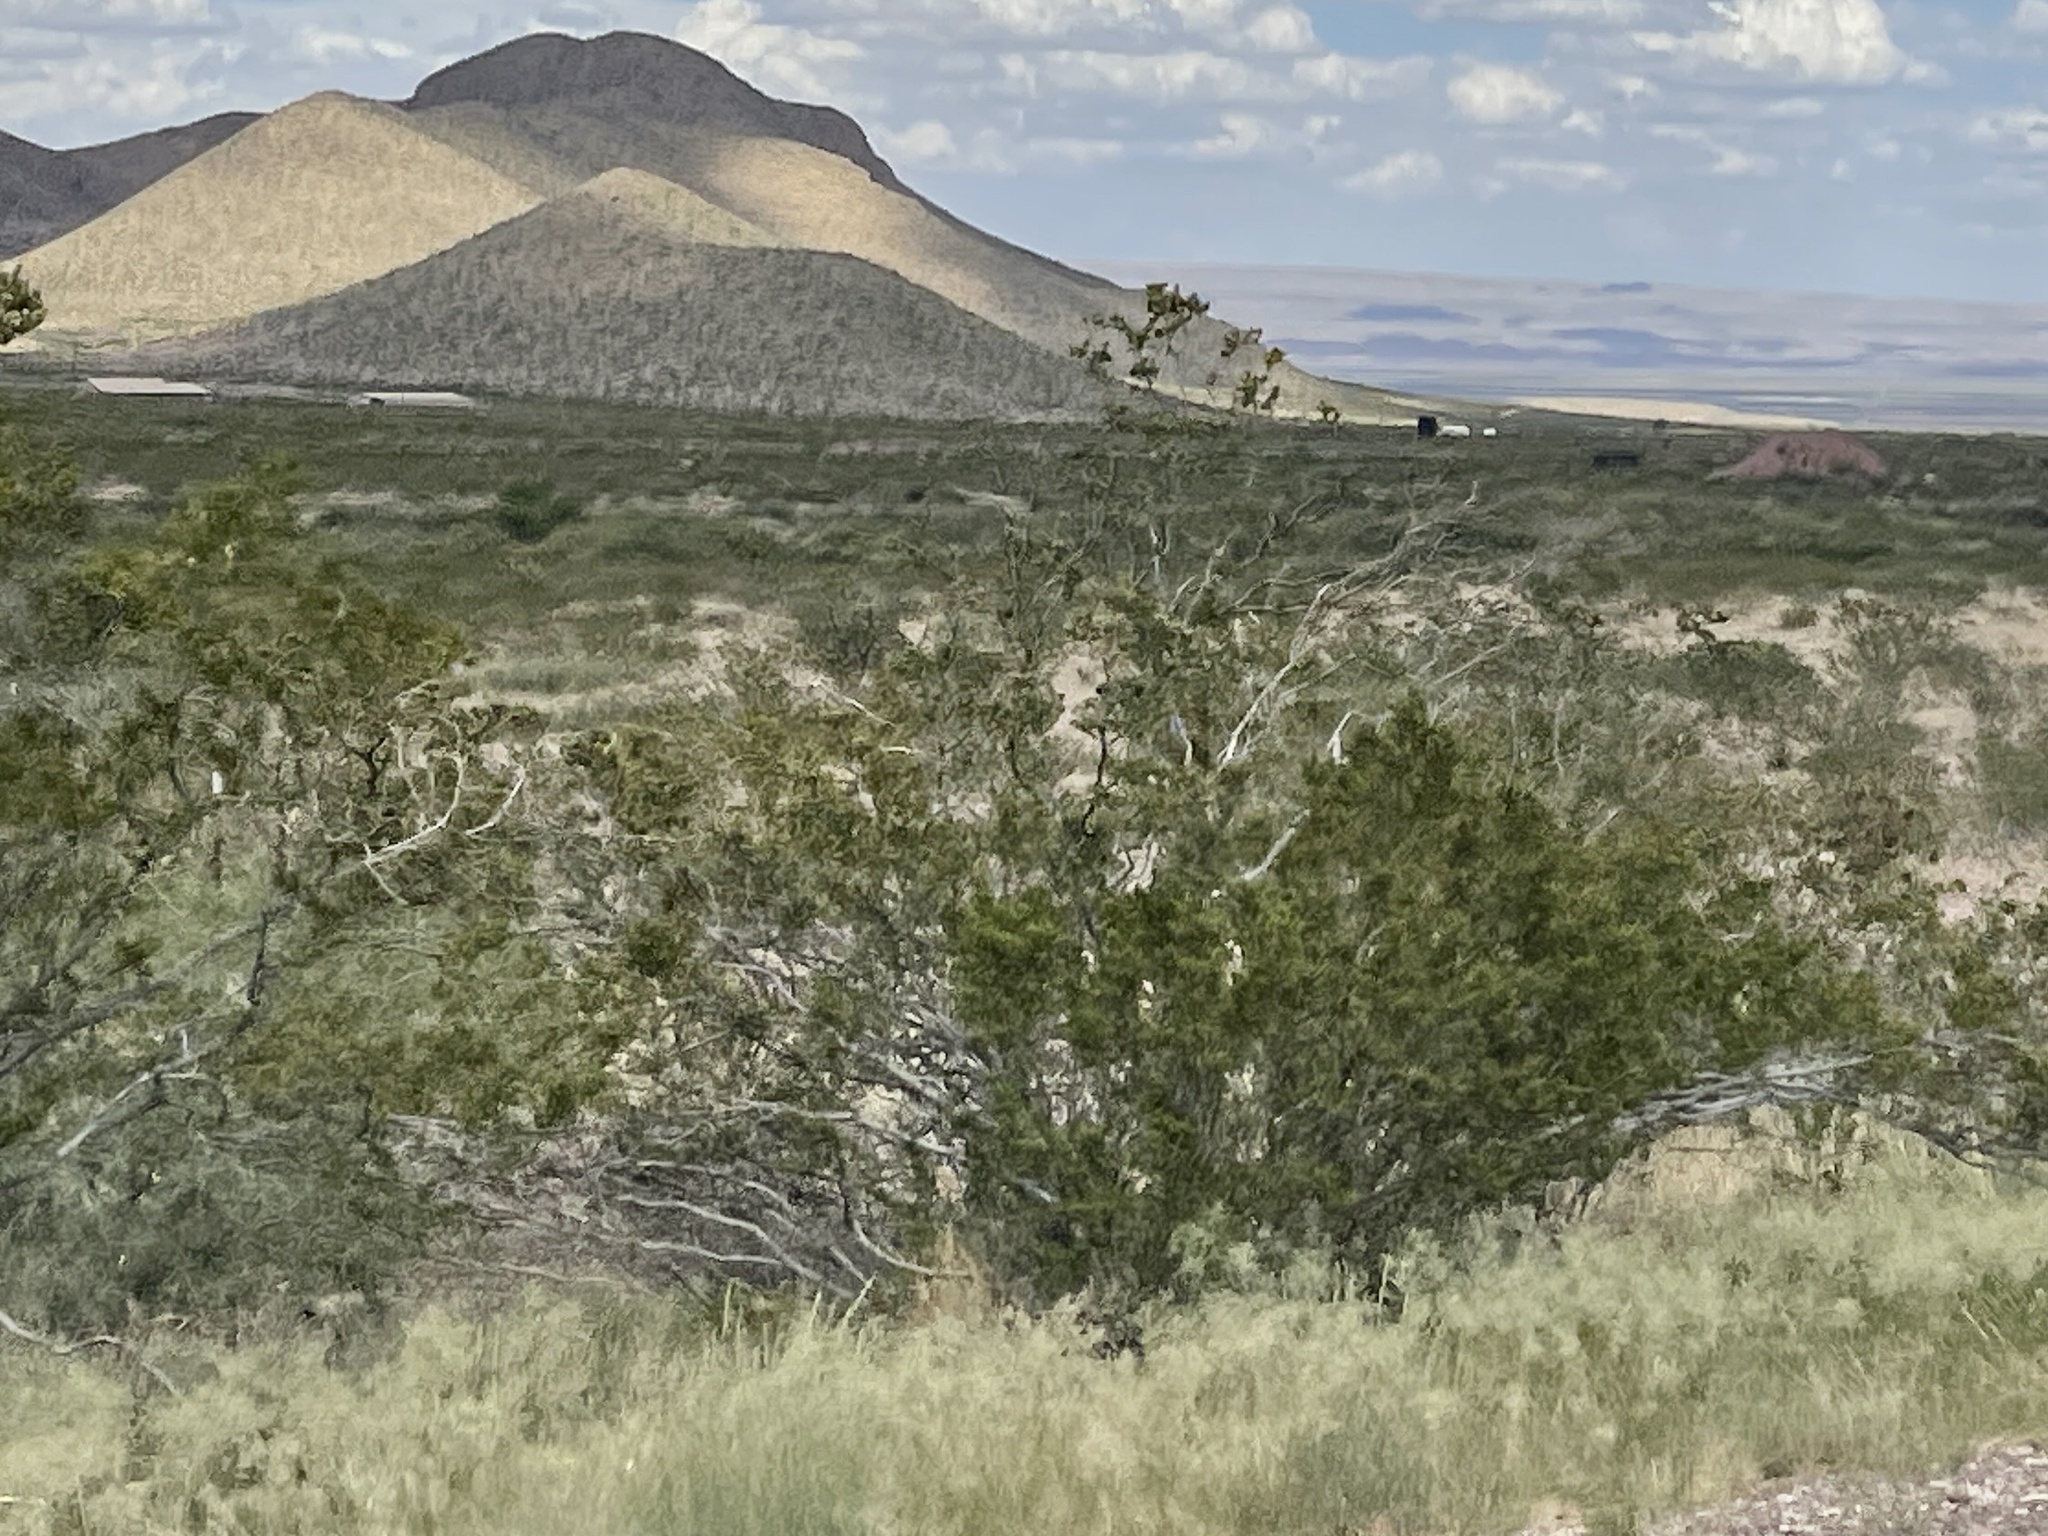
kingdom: Plantae
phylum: Tracheophyta
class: Magnoliopsida
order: Zygophyllales
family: Zygophyllaceae
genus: Larrea
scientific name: Larrea tridentata
